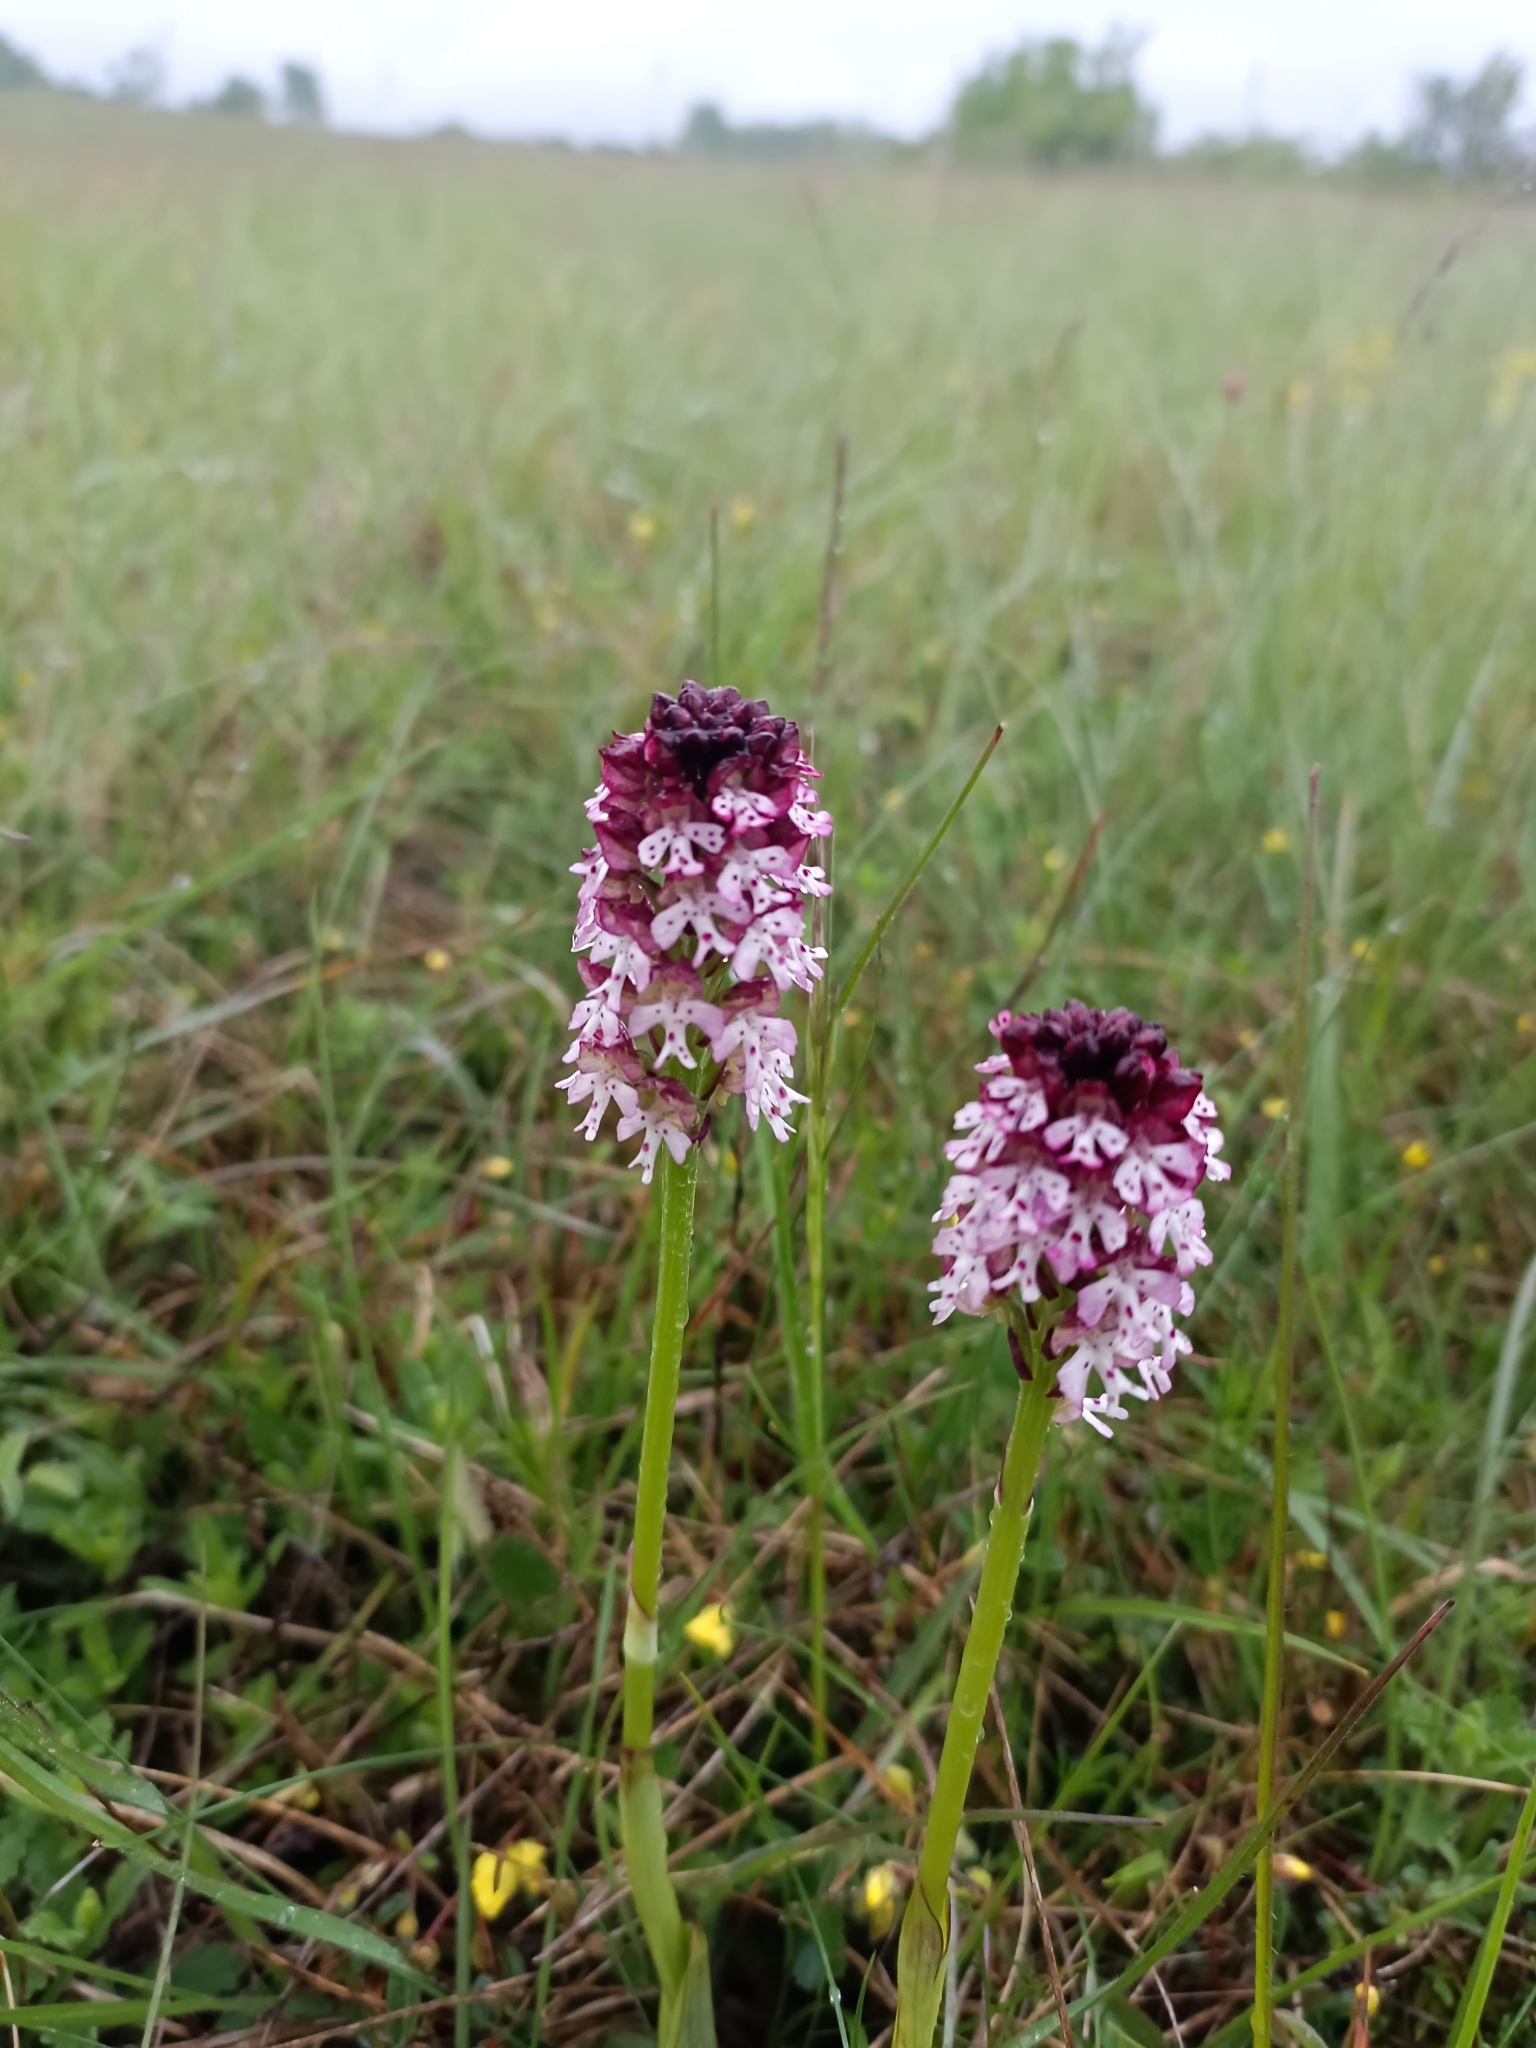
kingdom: Plantae
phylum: Tracheophyta
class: Liliopsida
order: Asparagales
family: Orchidaceae
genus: Neotinea
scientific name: Neotinea ustulata
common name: Burnt orchid
